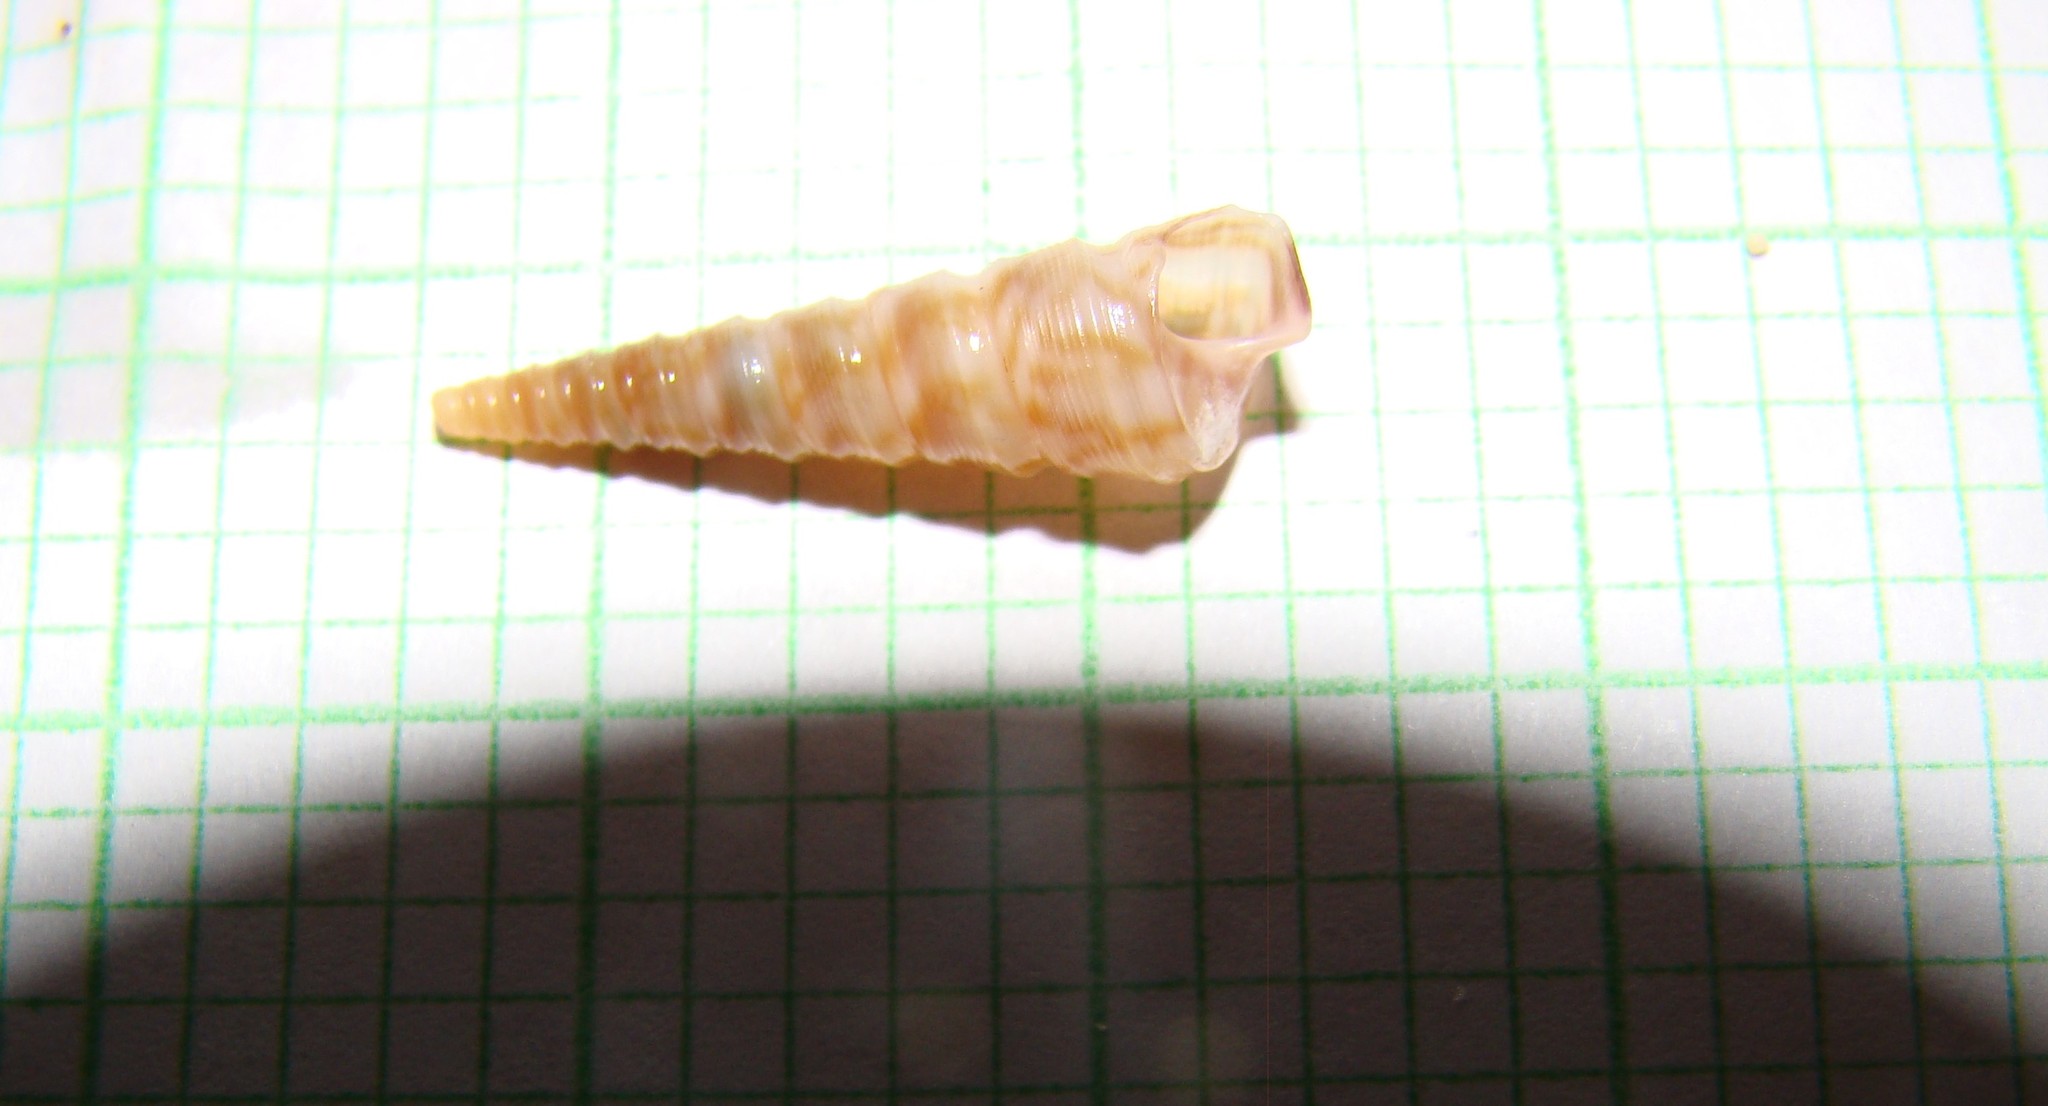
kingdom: Animalia
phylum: Mollusca
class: Gastropoda
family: Turritellidae
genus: Stiracolpus
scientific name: Stiracolpus pagoda
